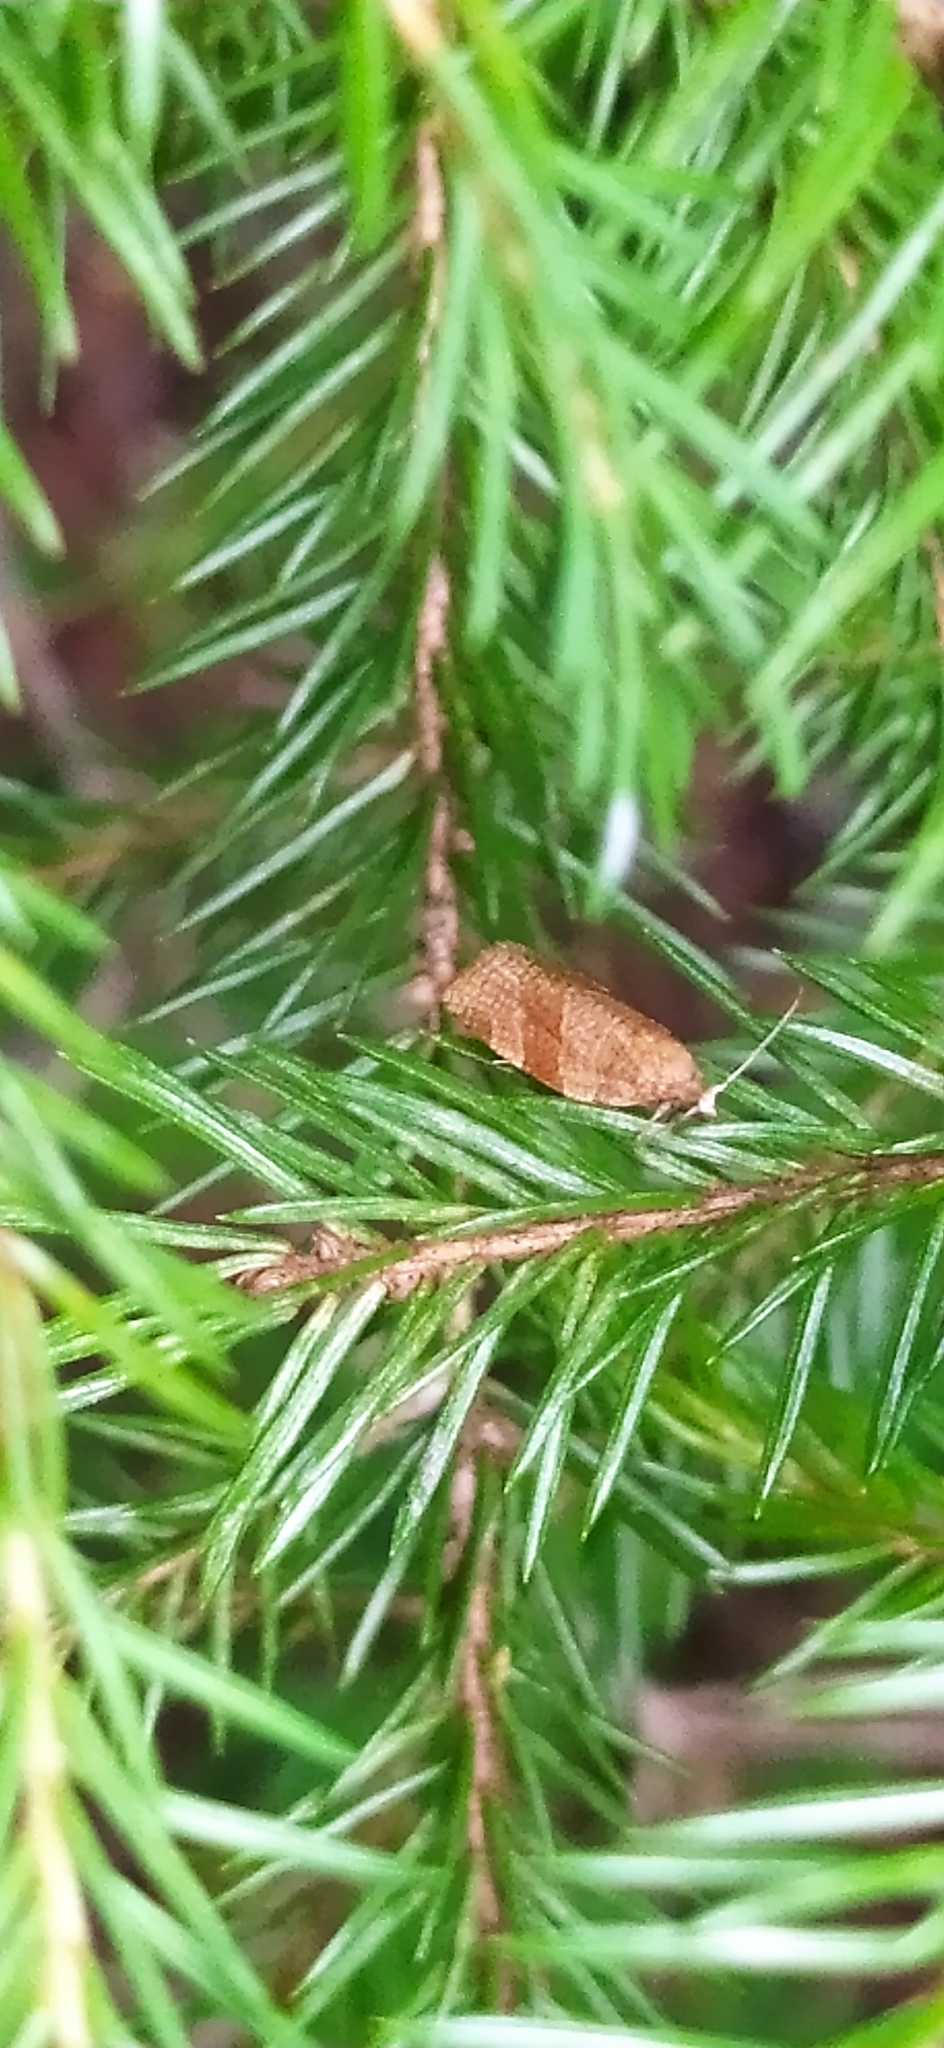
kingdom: Animalia
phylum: Arthropoda
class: Insecta
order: Lepidoptera
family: Tortricidae
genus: Pandemis
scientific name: Pandemis cinnamomeana
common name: White-faced twist
